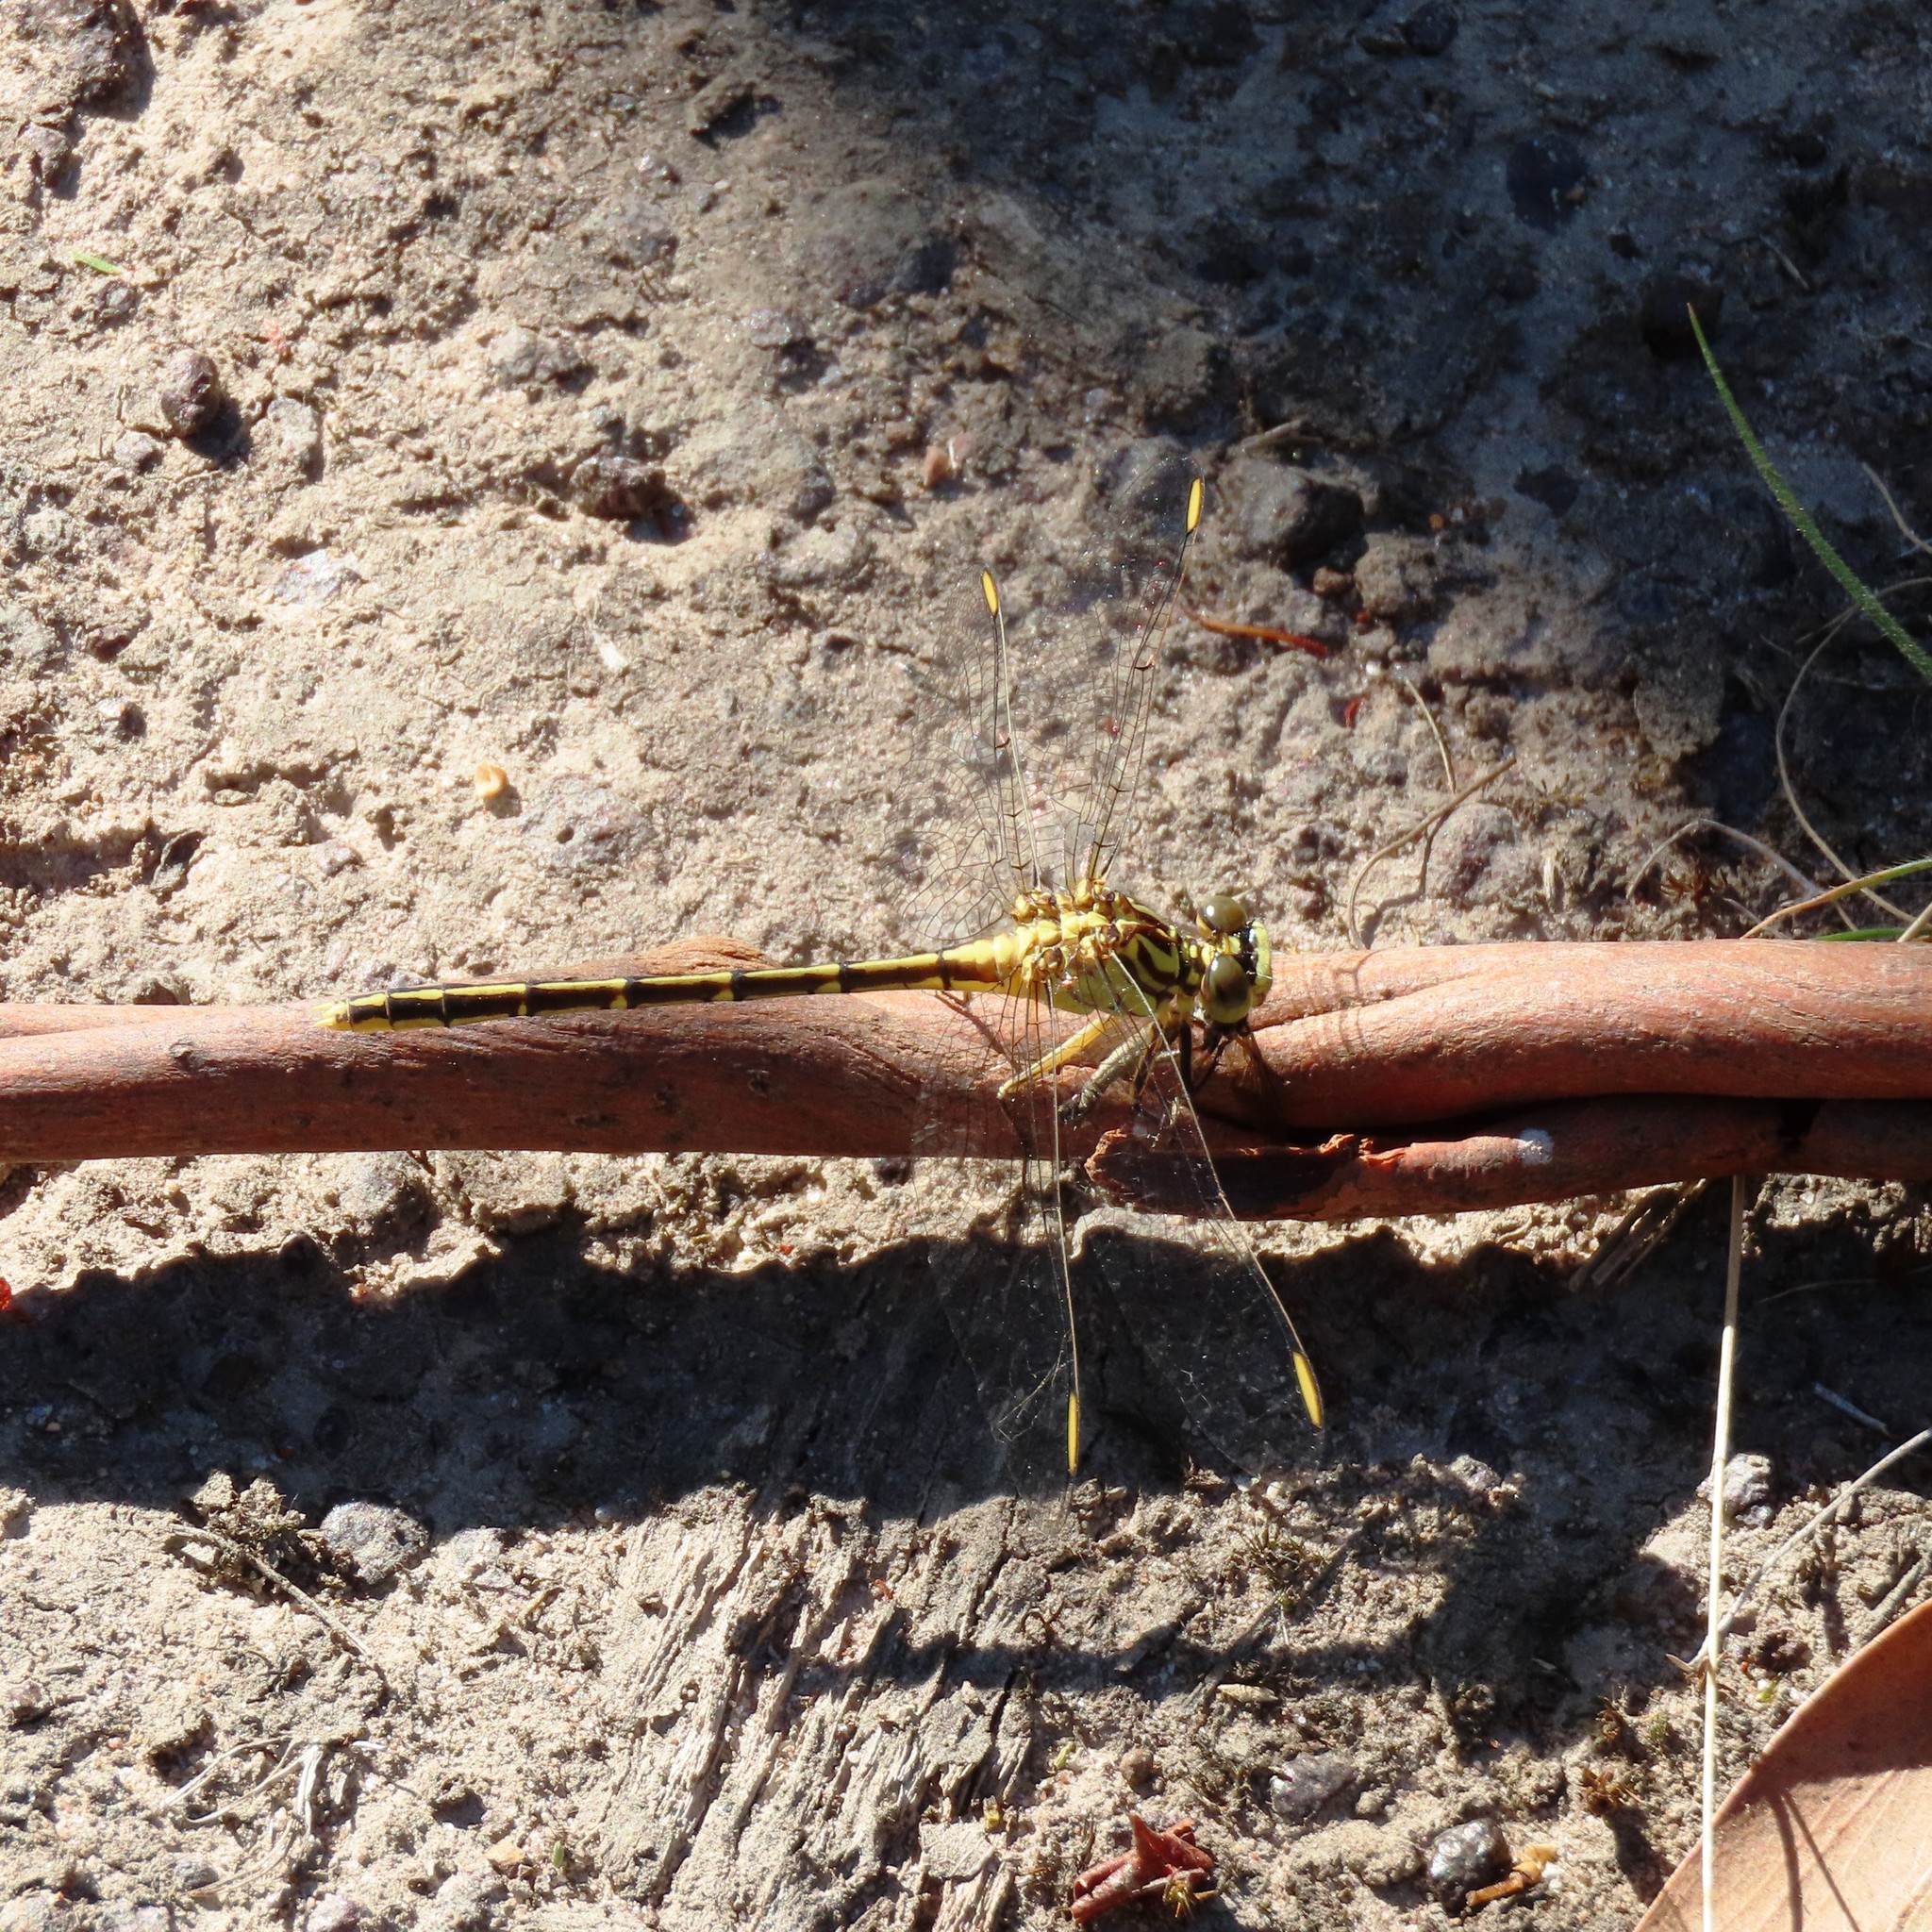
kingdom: Animalia
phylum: Arthropoda
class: Insecta
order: Odonata
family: Gomphidae
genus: Austrogomphus
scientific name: Austrogomphus guerini
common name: Yellow-striped hunter
